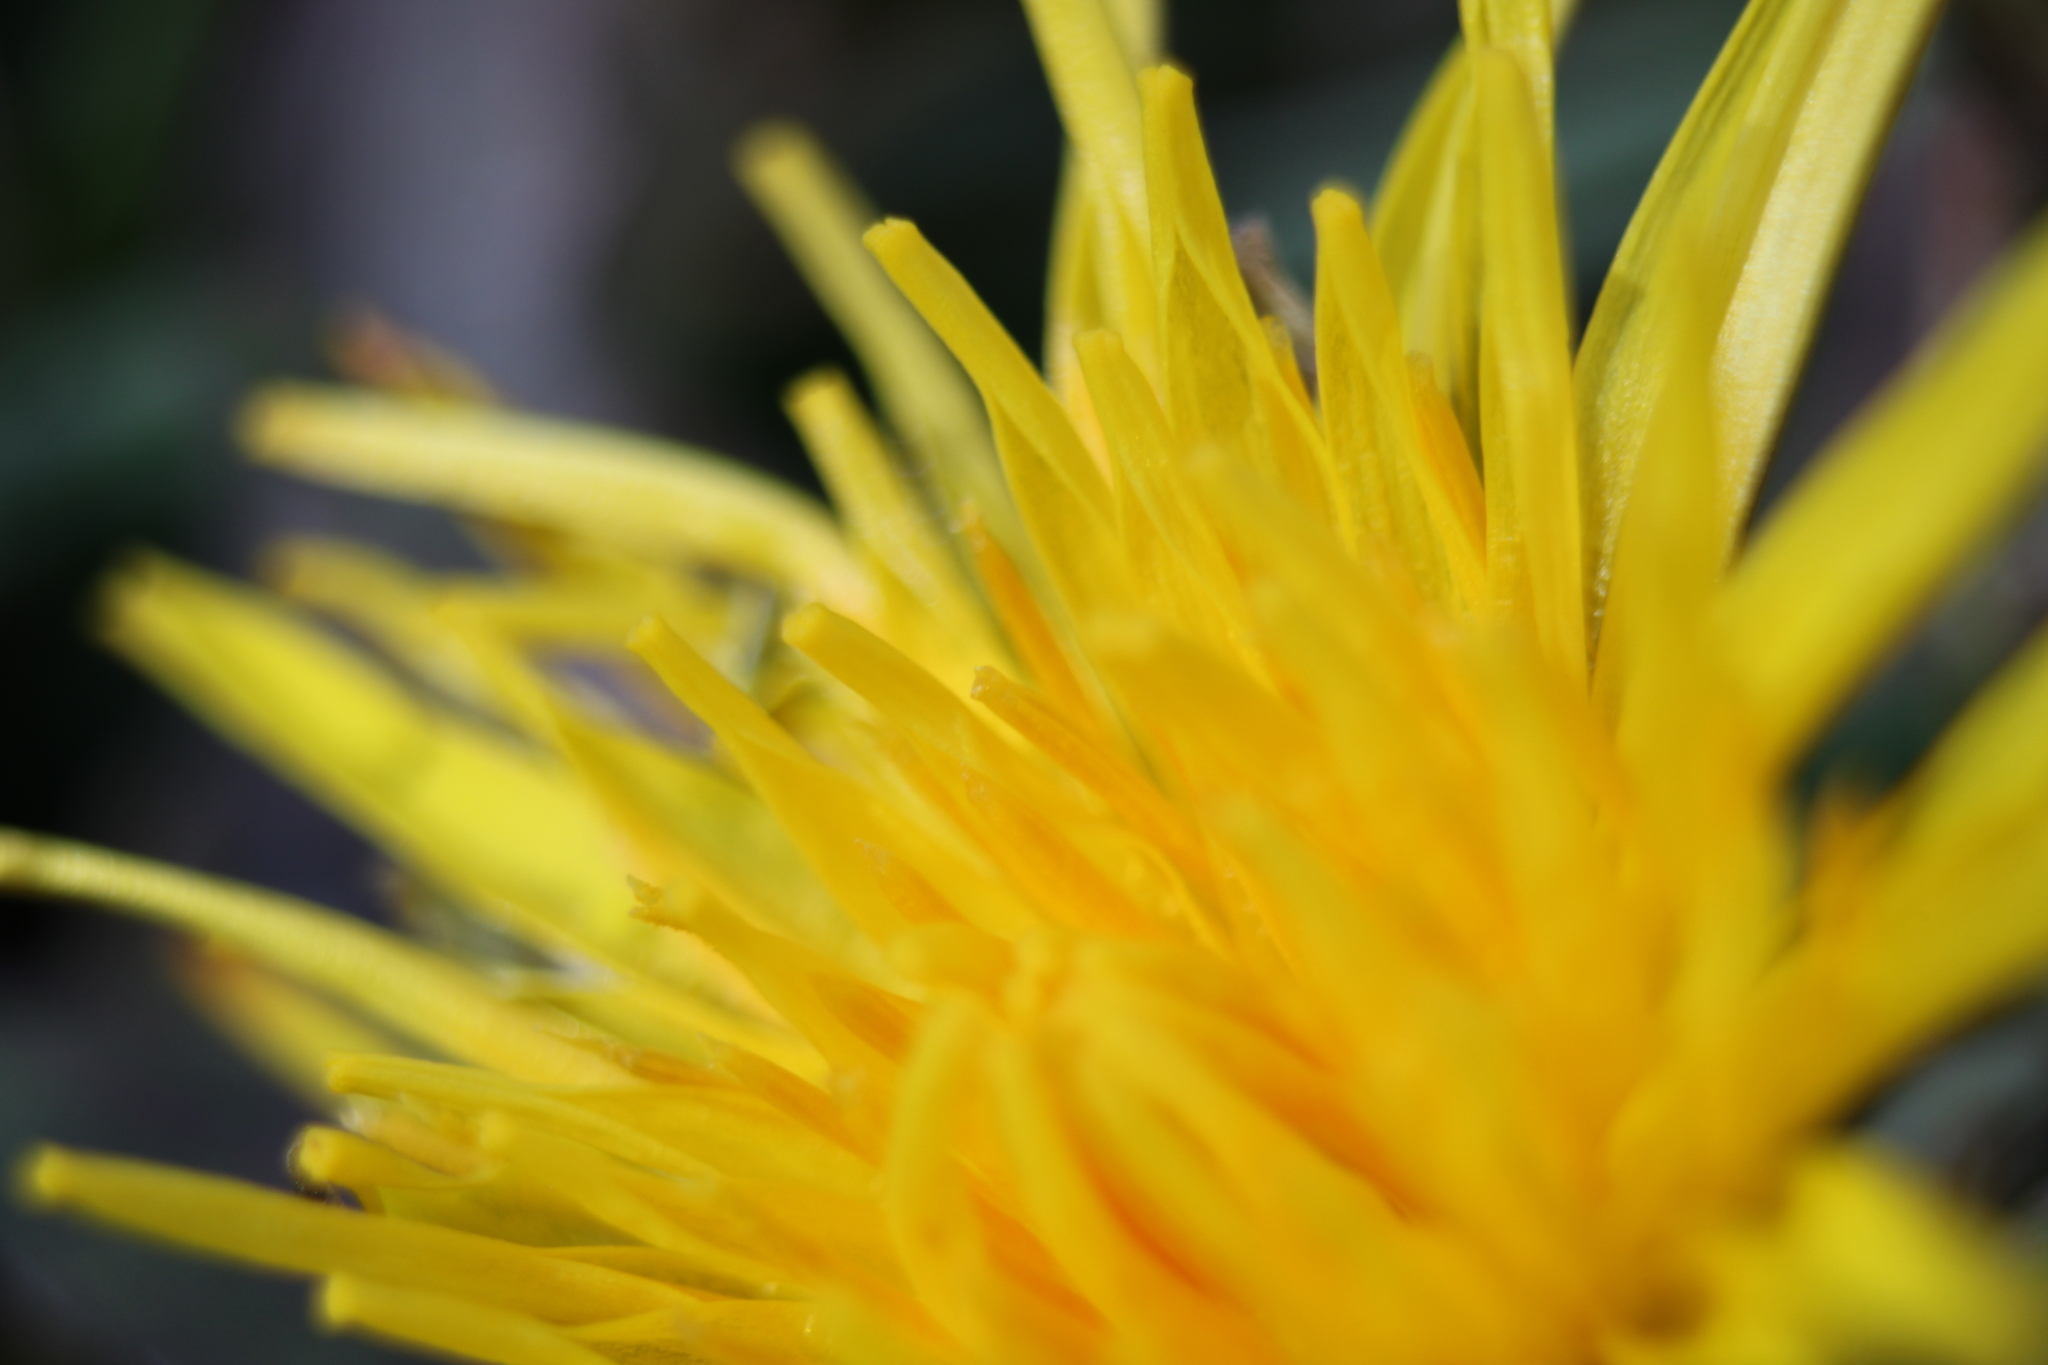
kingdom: Plantae
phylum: Tracheophyta
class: Magnoliopsida
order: Asterales
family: Asteraceae
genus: Taraxacum
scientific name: Taraxacum
